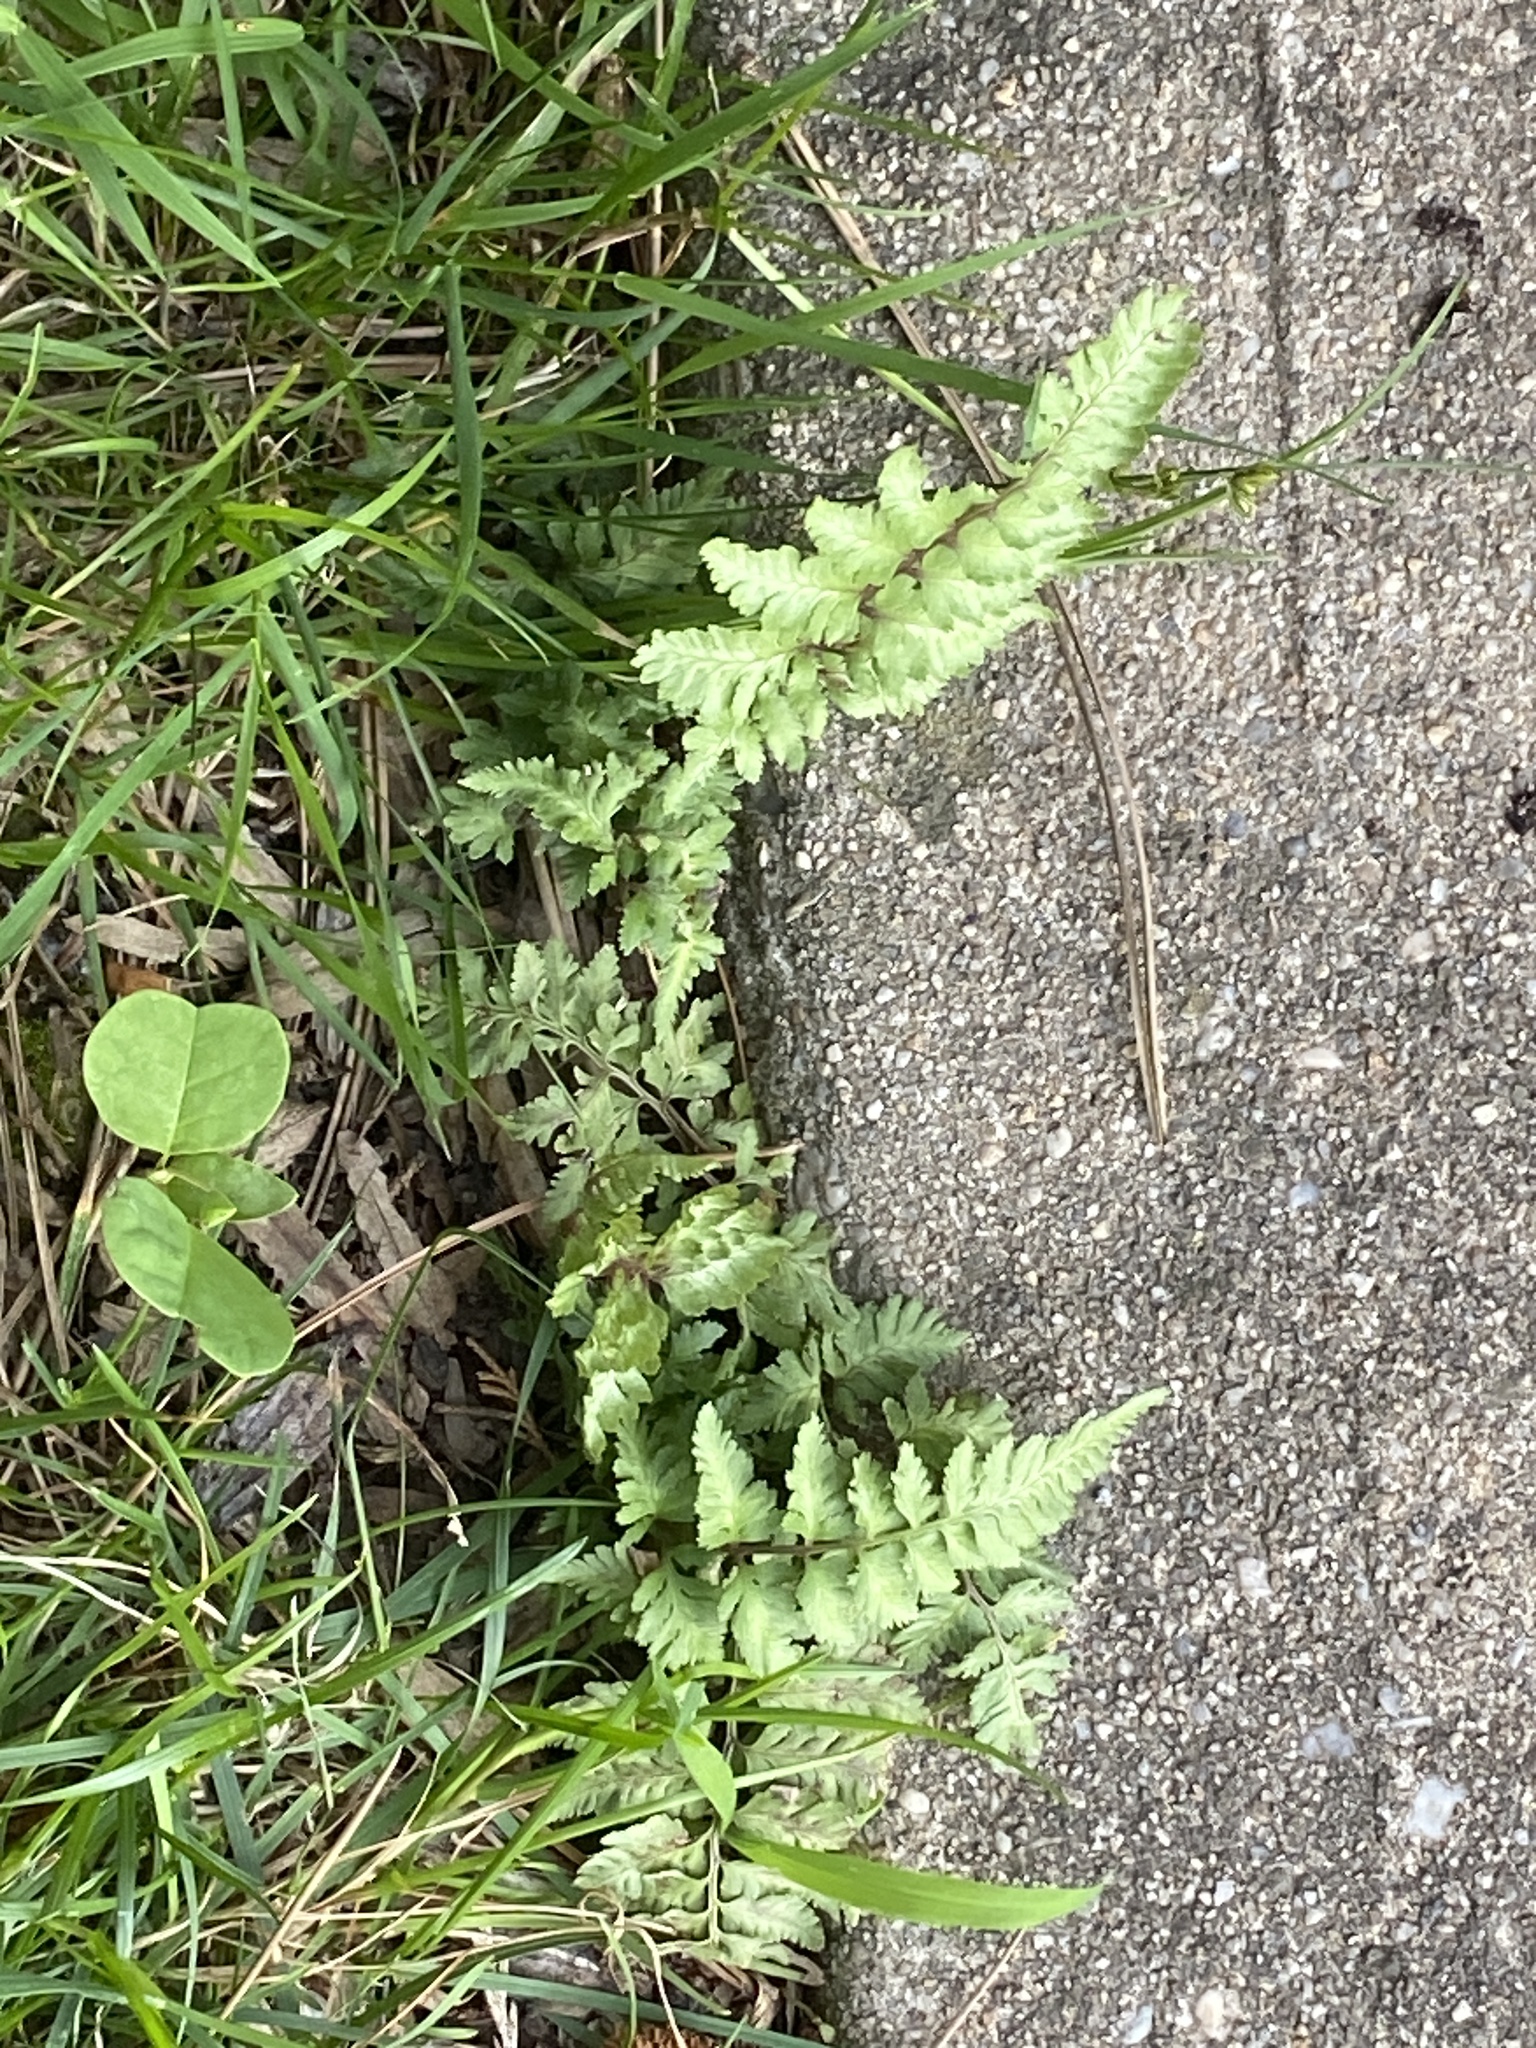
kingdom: Plantae
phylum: Tracheophyta
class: Polypodiopsida
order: Polypodiales
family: Athyriaceae
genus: Anisocampium
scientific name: Anisocampium niponicum
